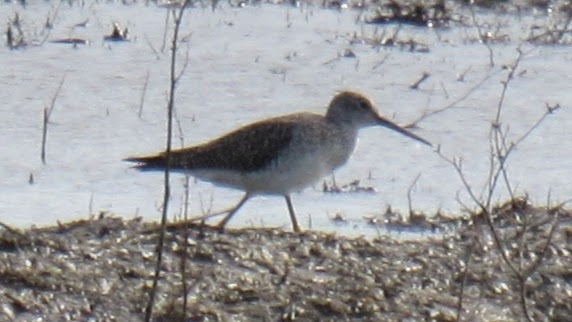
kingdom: Animalia
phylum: Chordata
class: Aves
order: Charadriiformes
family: Scolopacidae
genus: Tringa
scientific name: Tringa melanoleuca
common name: Greater yellowlegs
